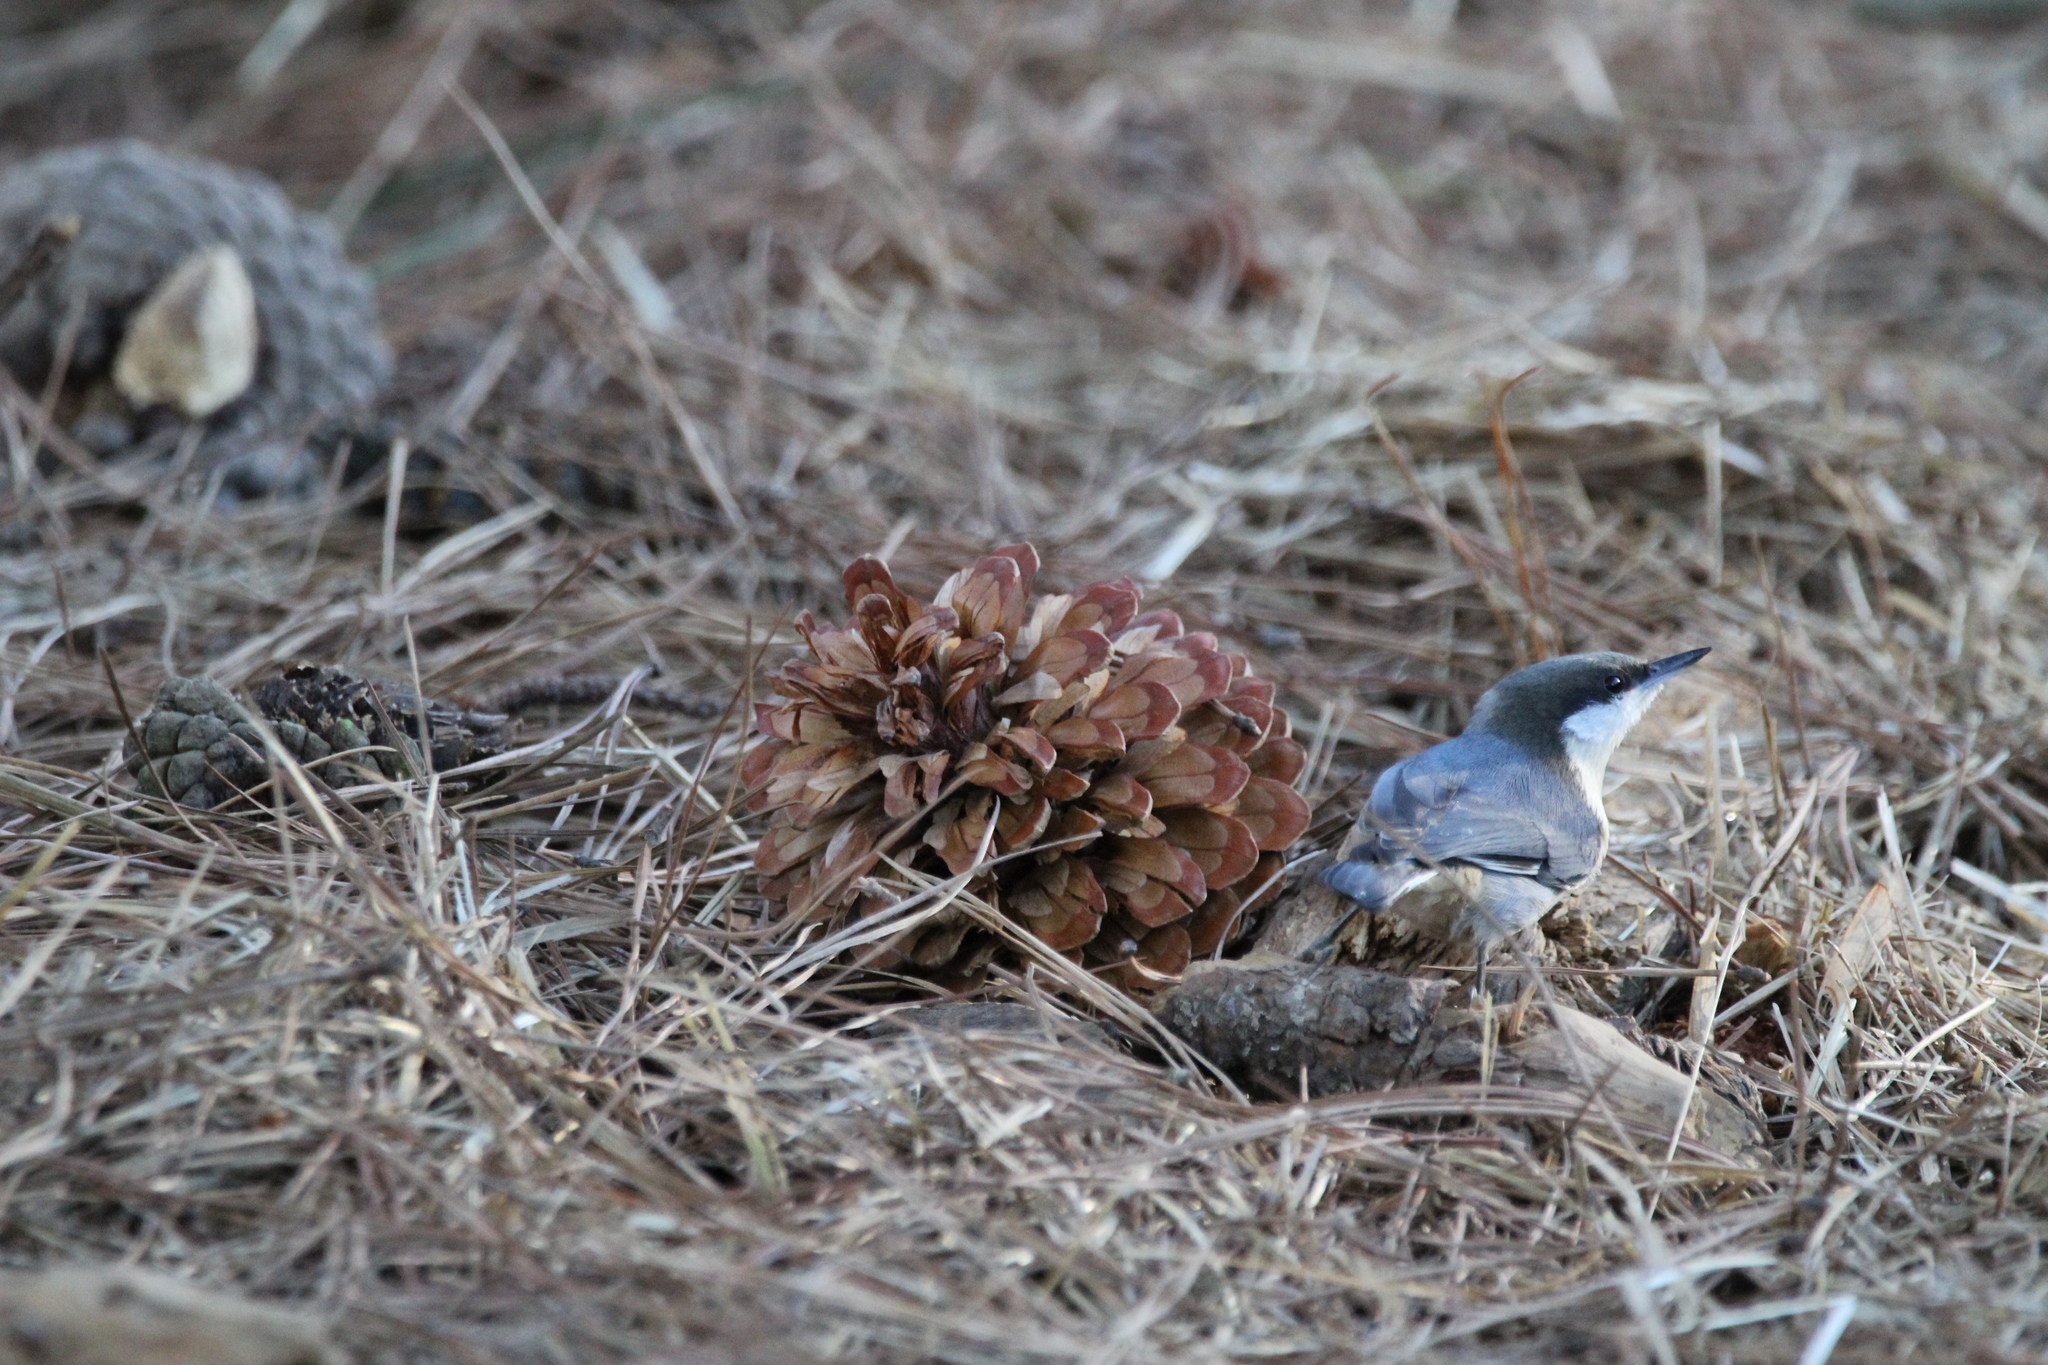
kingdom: Animalia
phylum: Chordata
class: Aves
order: Passeriformes
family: Sittidae
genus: Sitta
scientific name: Sitta pygmaea
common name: Pygmy nuthatch
